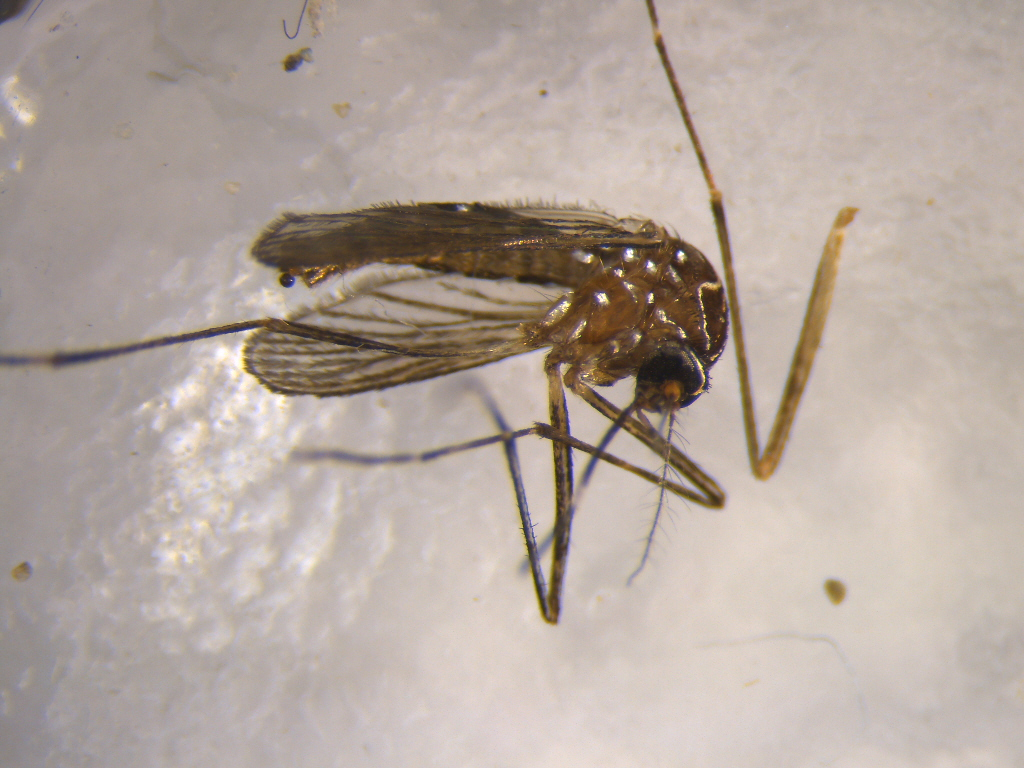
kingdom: Animalia
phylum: Arthropoda
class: Insecta
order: Diptera
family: Culicidae
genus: Aedes
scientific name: Aedes notoscriptus
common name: Australian backyard mosquito
